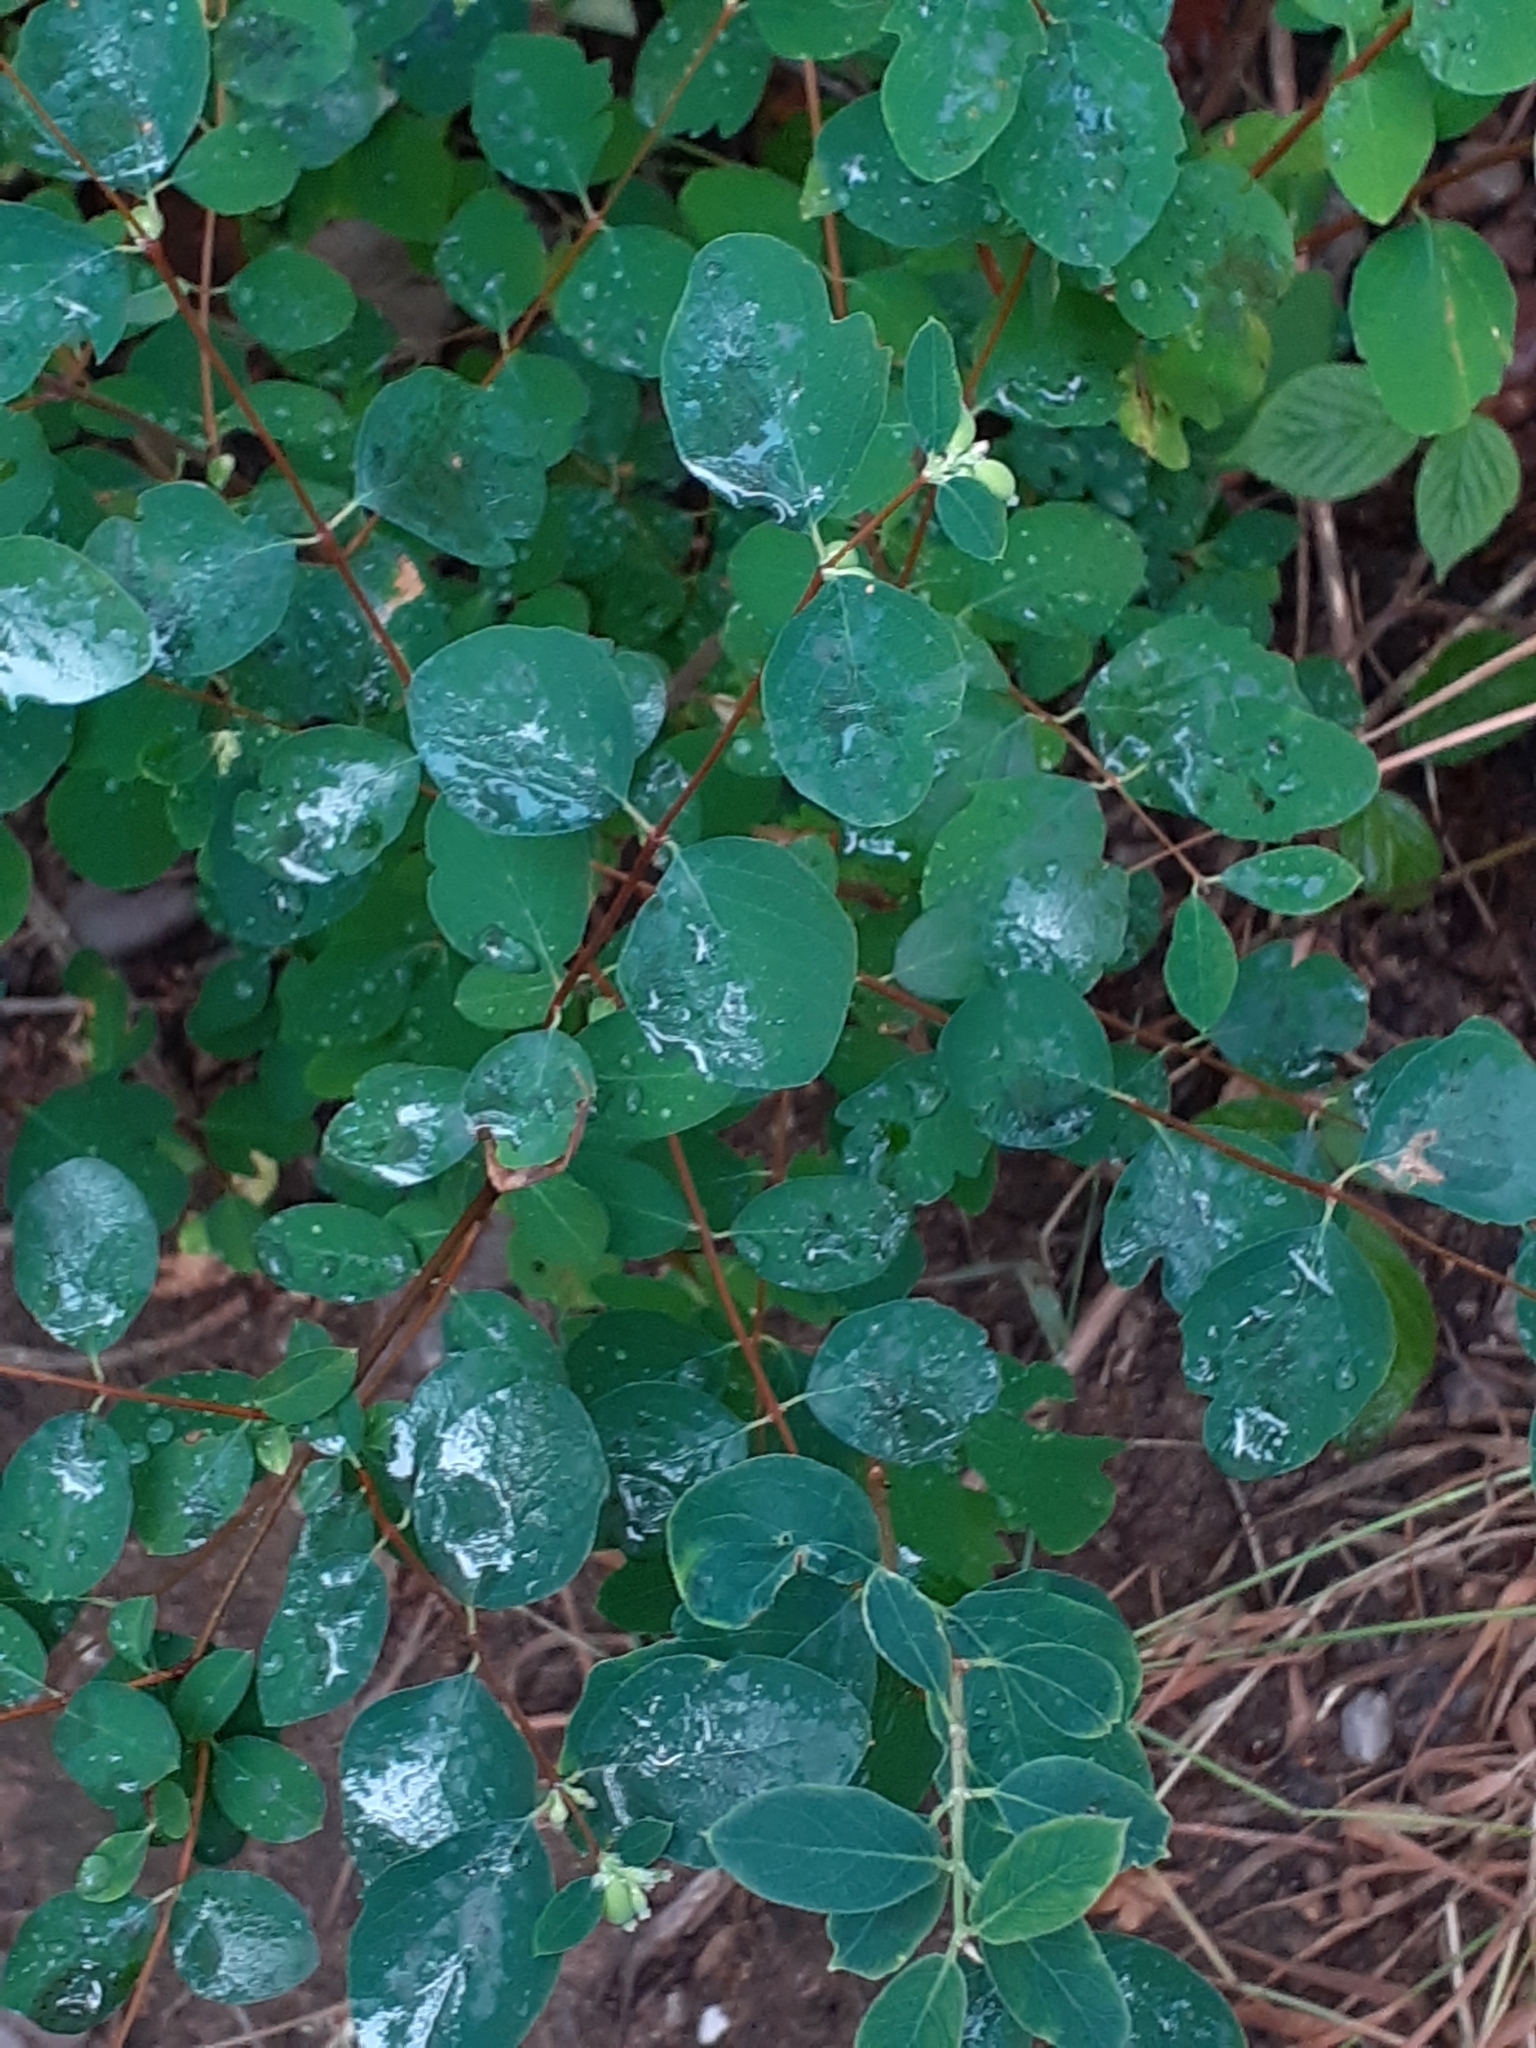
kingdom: Plantae
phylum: Tracheophyta
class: Magnoliopsida
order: Dipsacales
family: Caprifoliaceae
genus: Symphoricarpos
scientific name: Symphoricarpos albus
